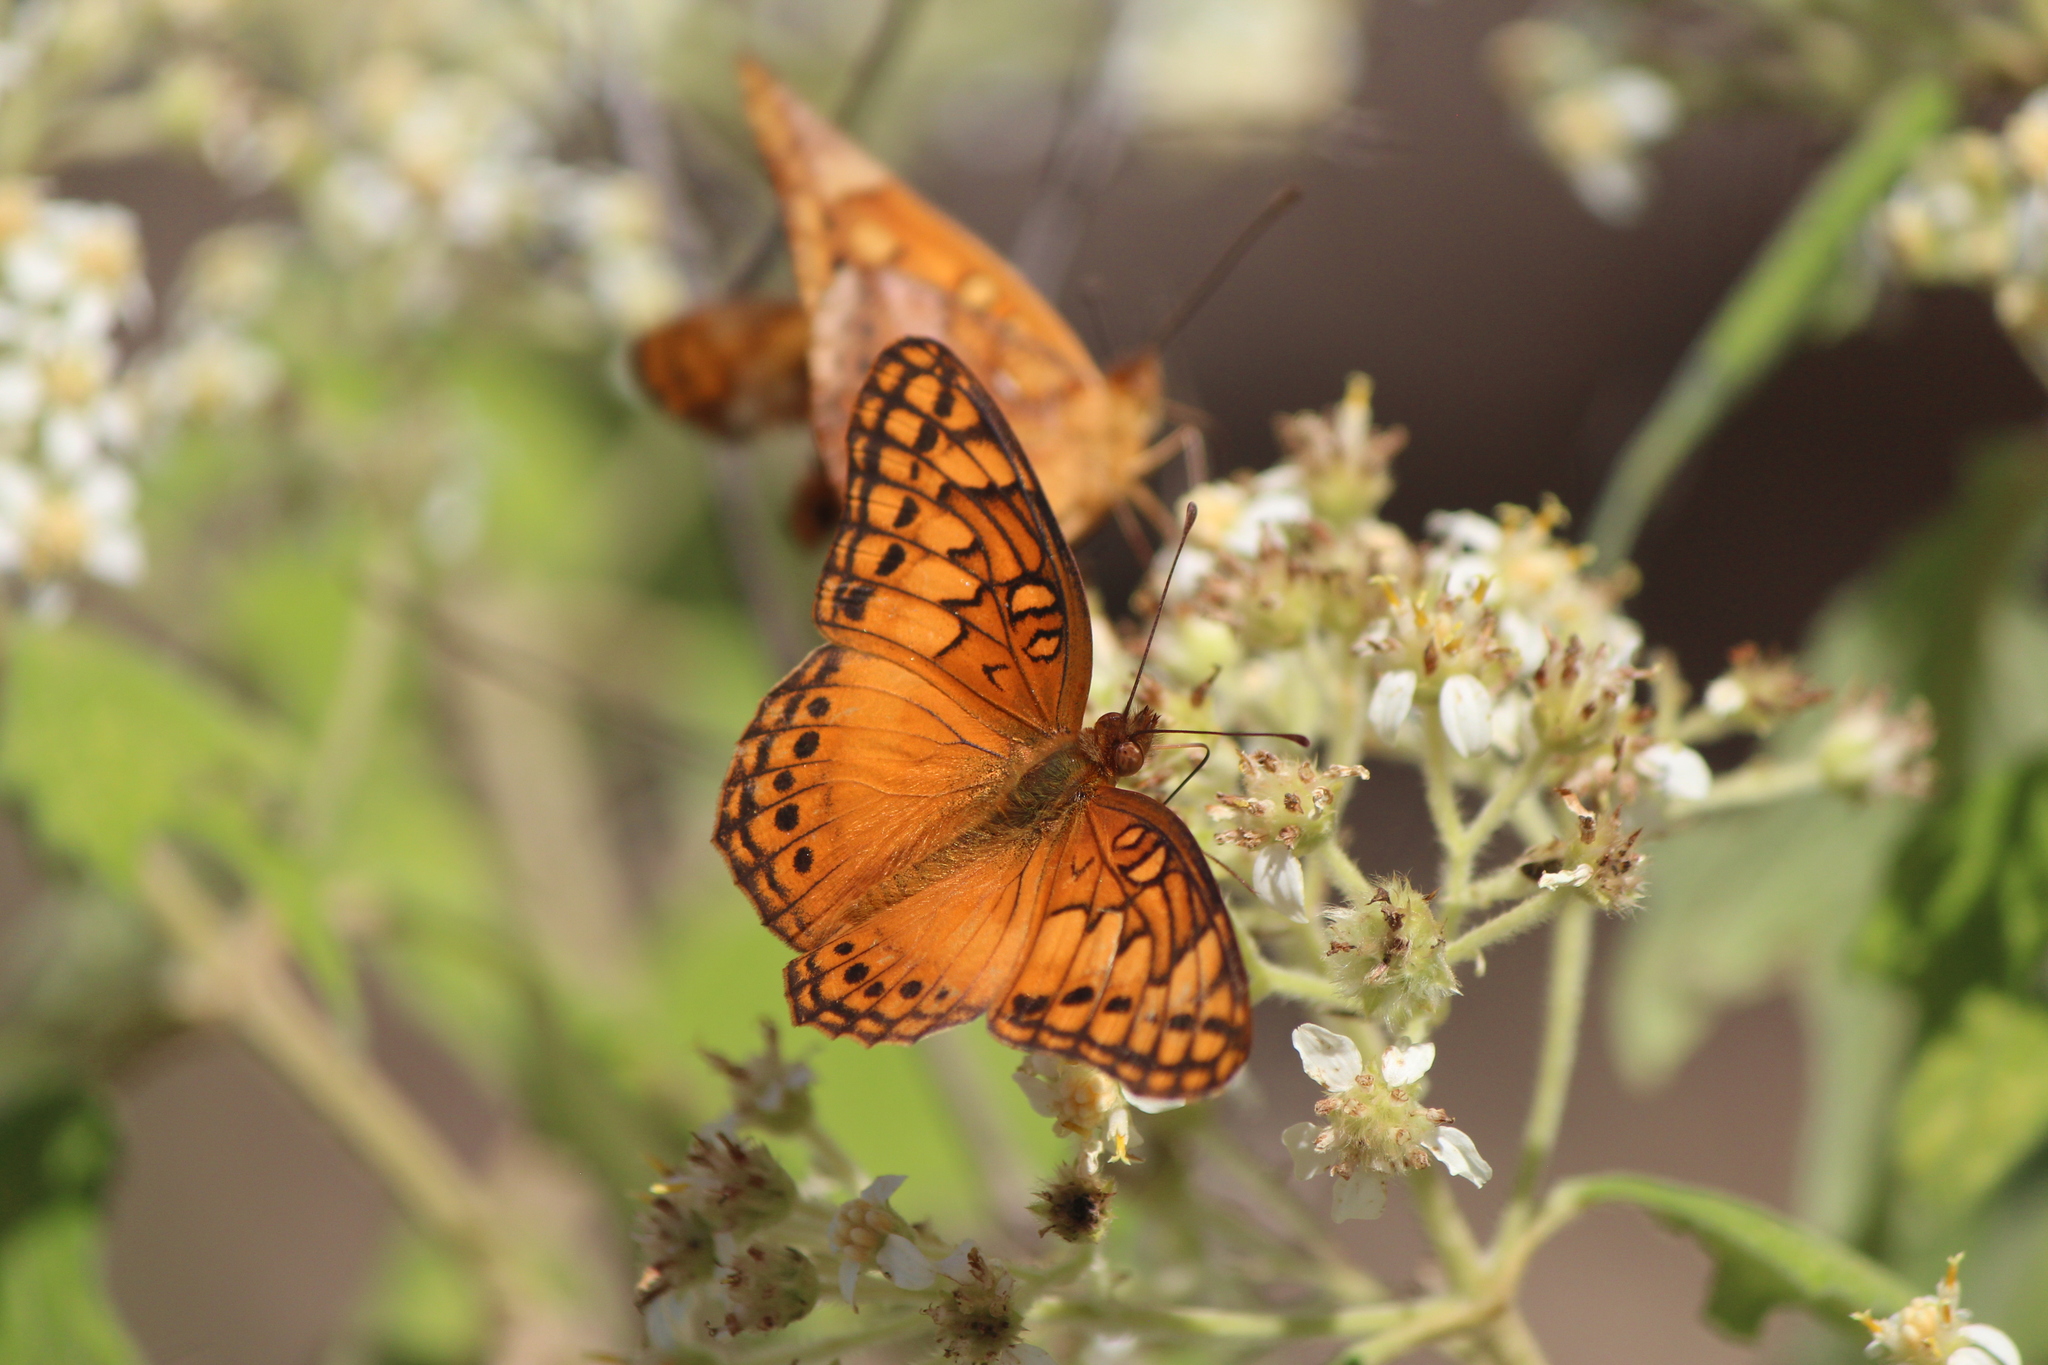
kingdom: Animalia
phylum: Arthropoda
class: Insecta
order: Lepidoptera
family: Nymphalidae
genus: Euptoieta
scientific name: Euptoieta hegesia
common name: Mexican fritillary
